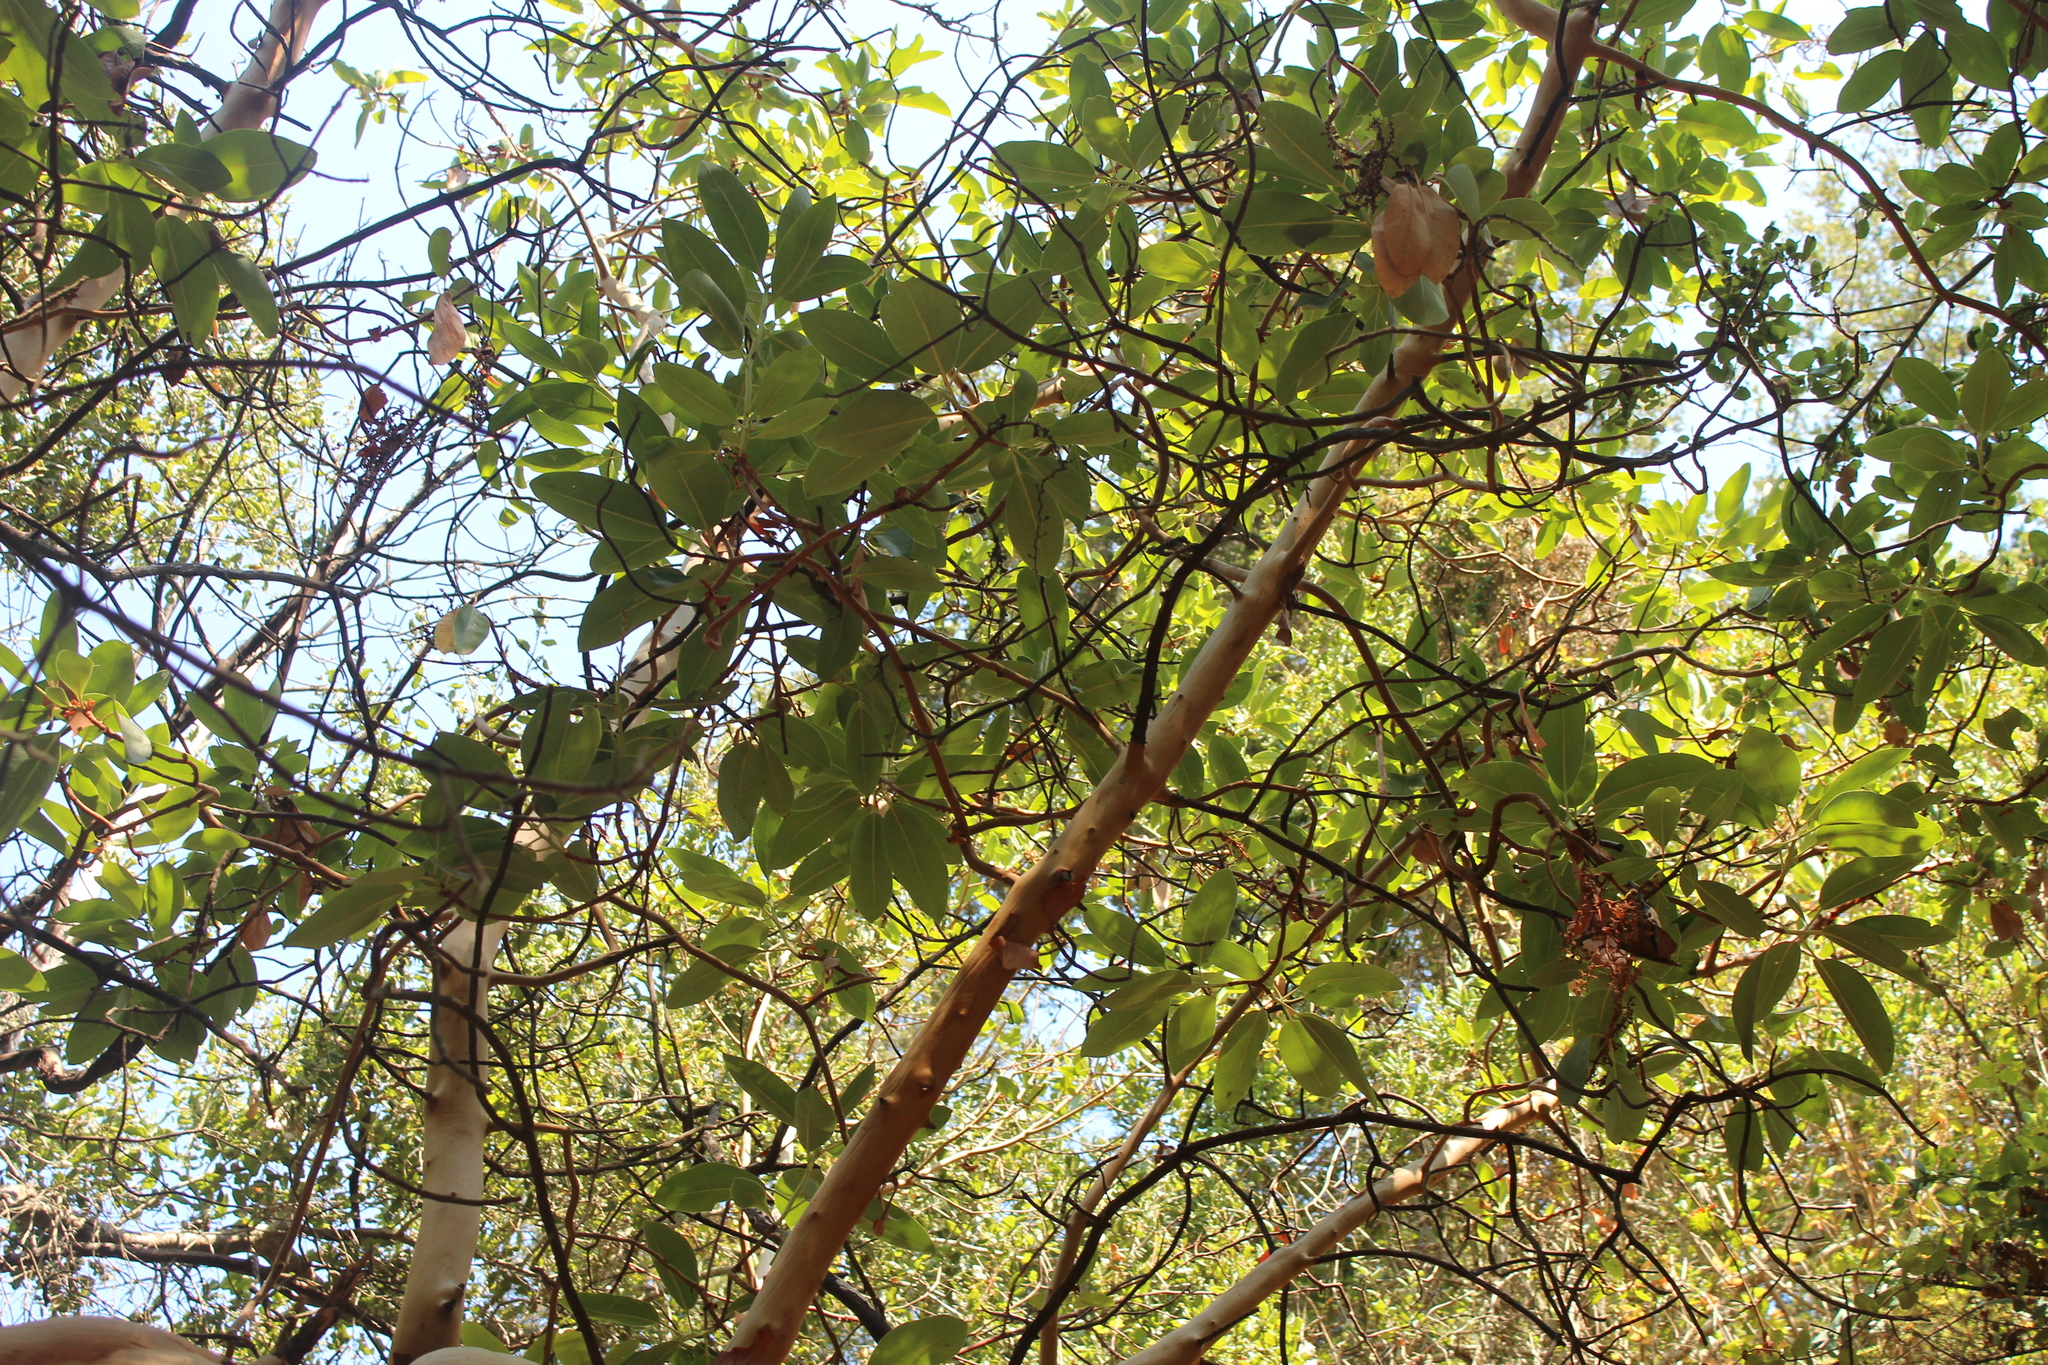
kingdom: Plantae
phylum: Tracheophyta
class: Magnoliopsida
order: Ericales
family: Ericaceae
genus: Arbutus
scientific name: Arbutus menziesii
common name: Pacific madrone
